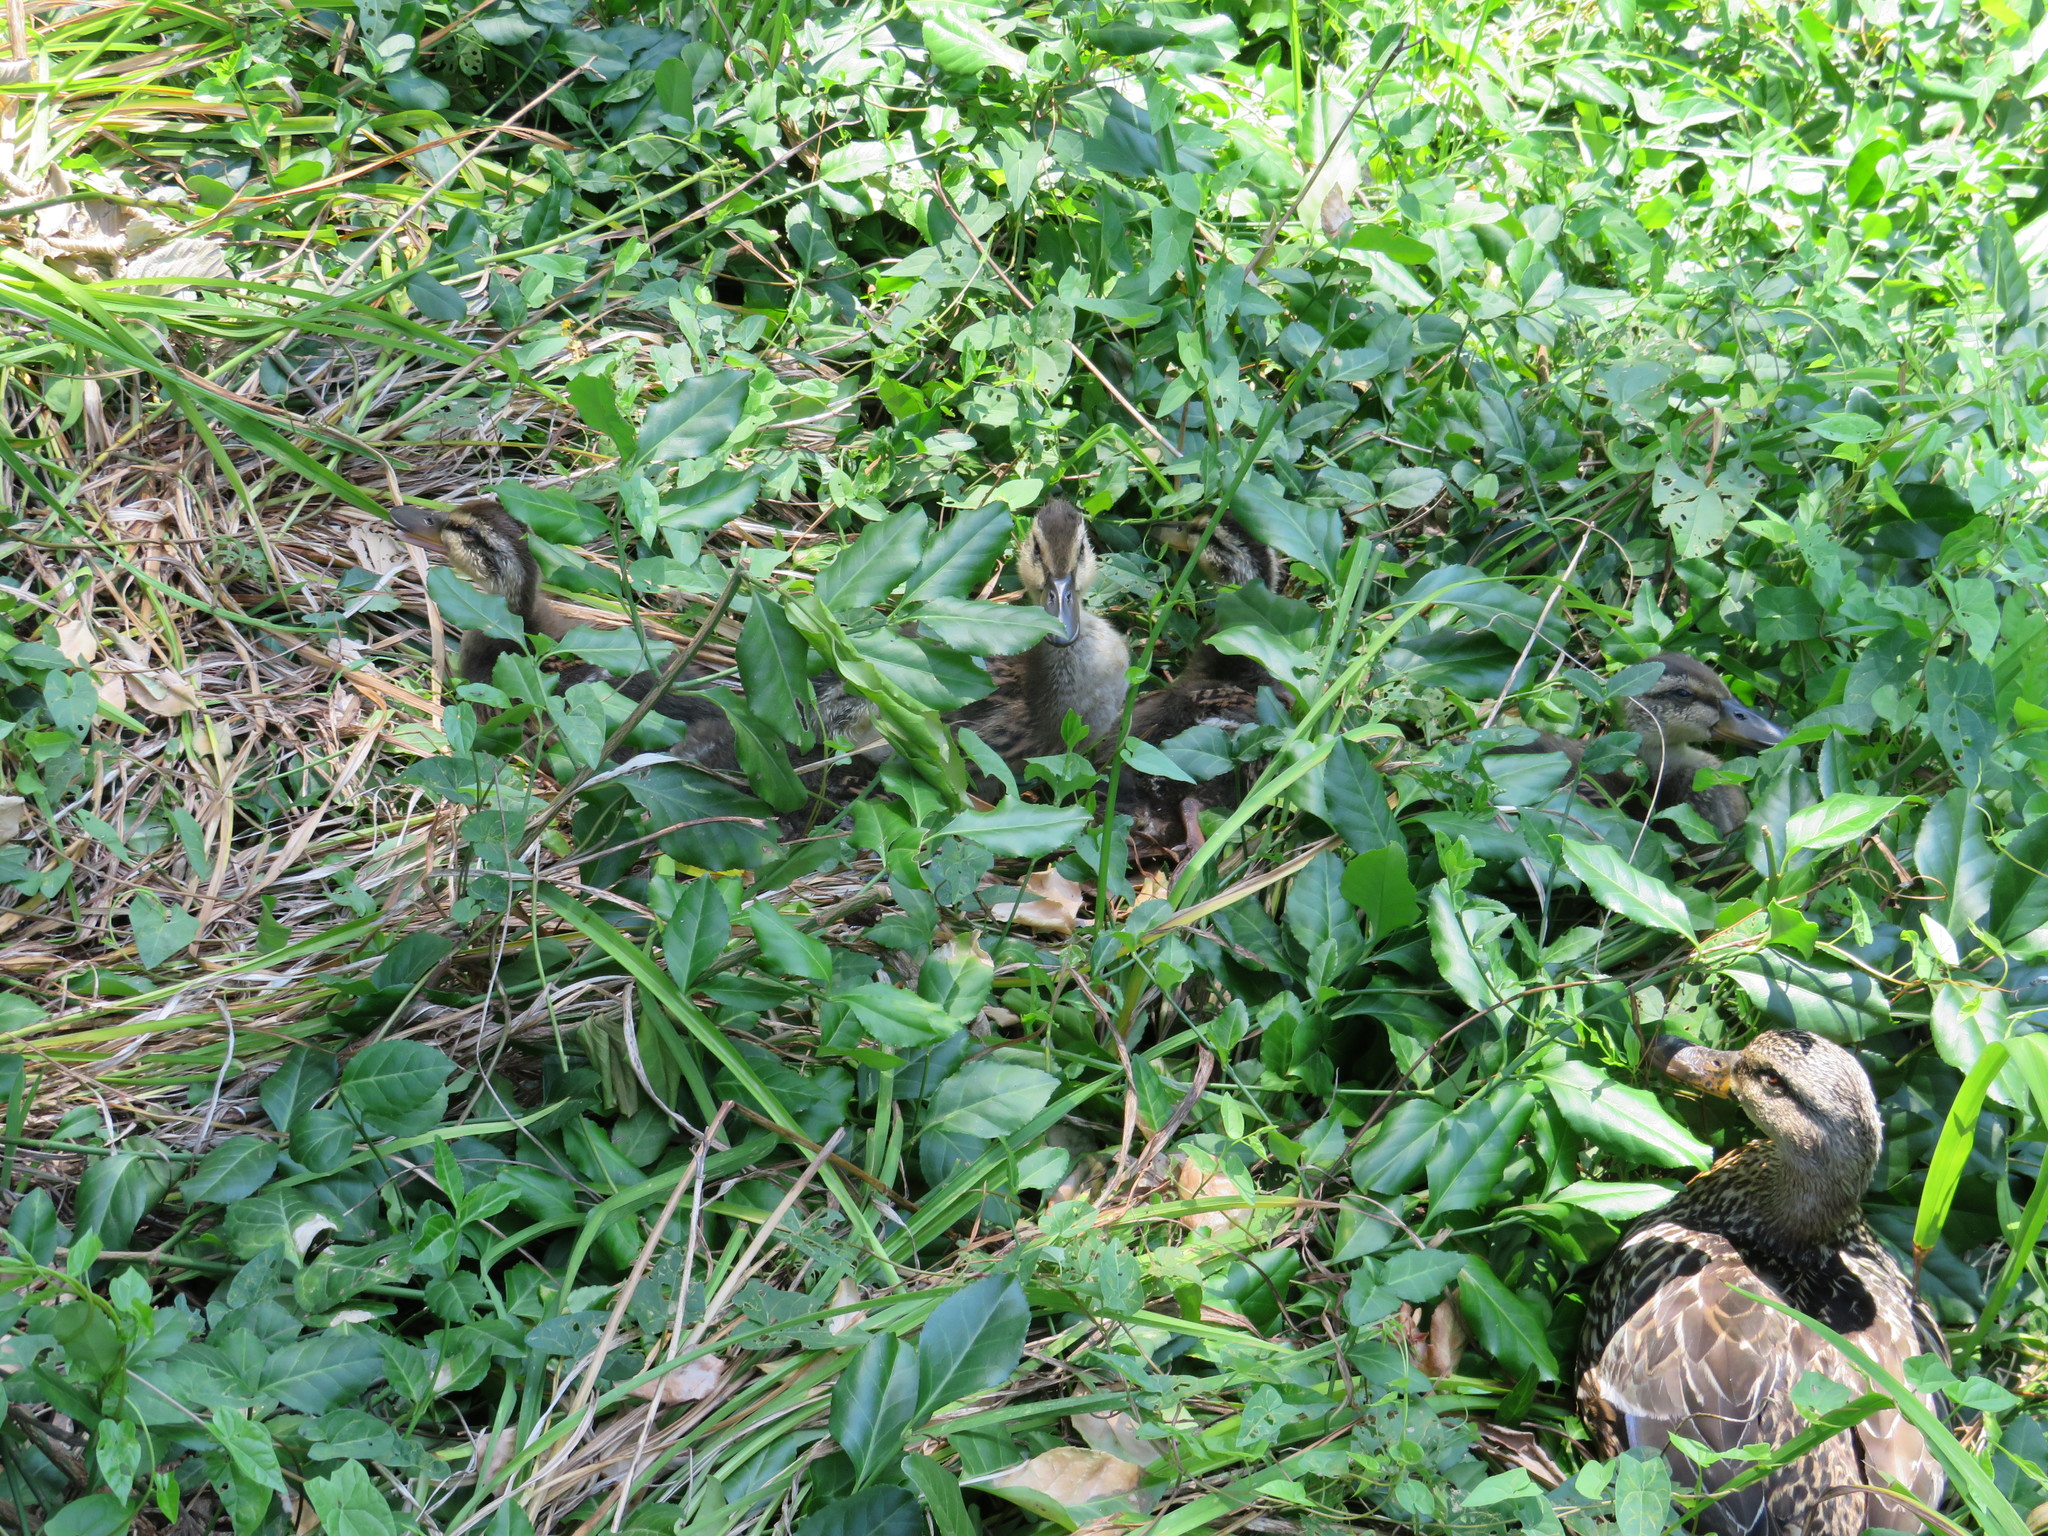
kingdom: Animalia
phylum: Chordata
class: Aves
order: Anseriformes
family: Anatidae
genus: Anas
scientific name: Anas platyrhynchos
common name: Mallard
